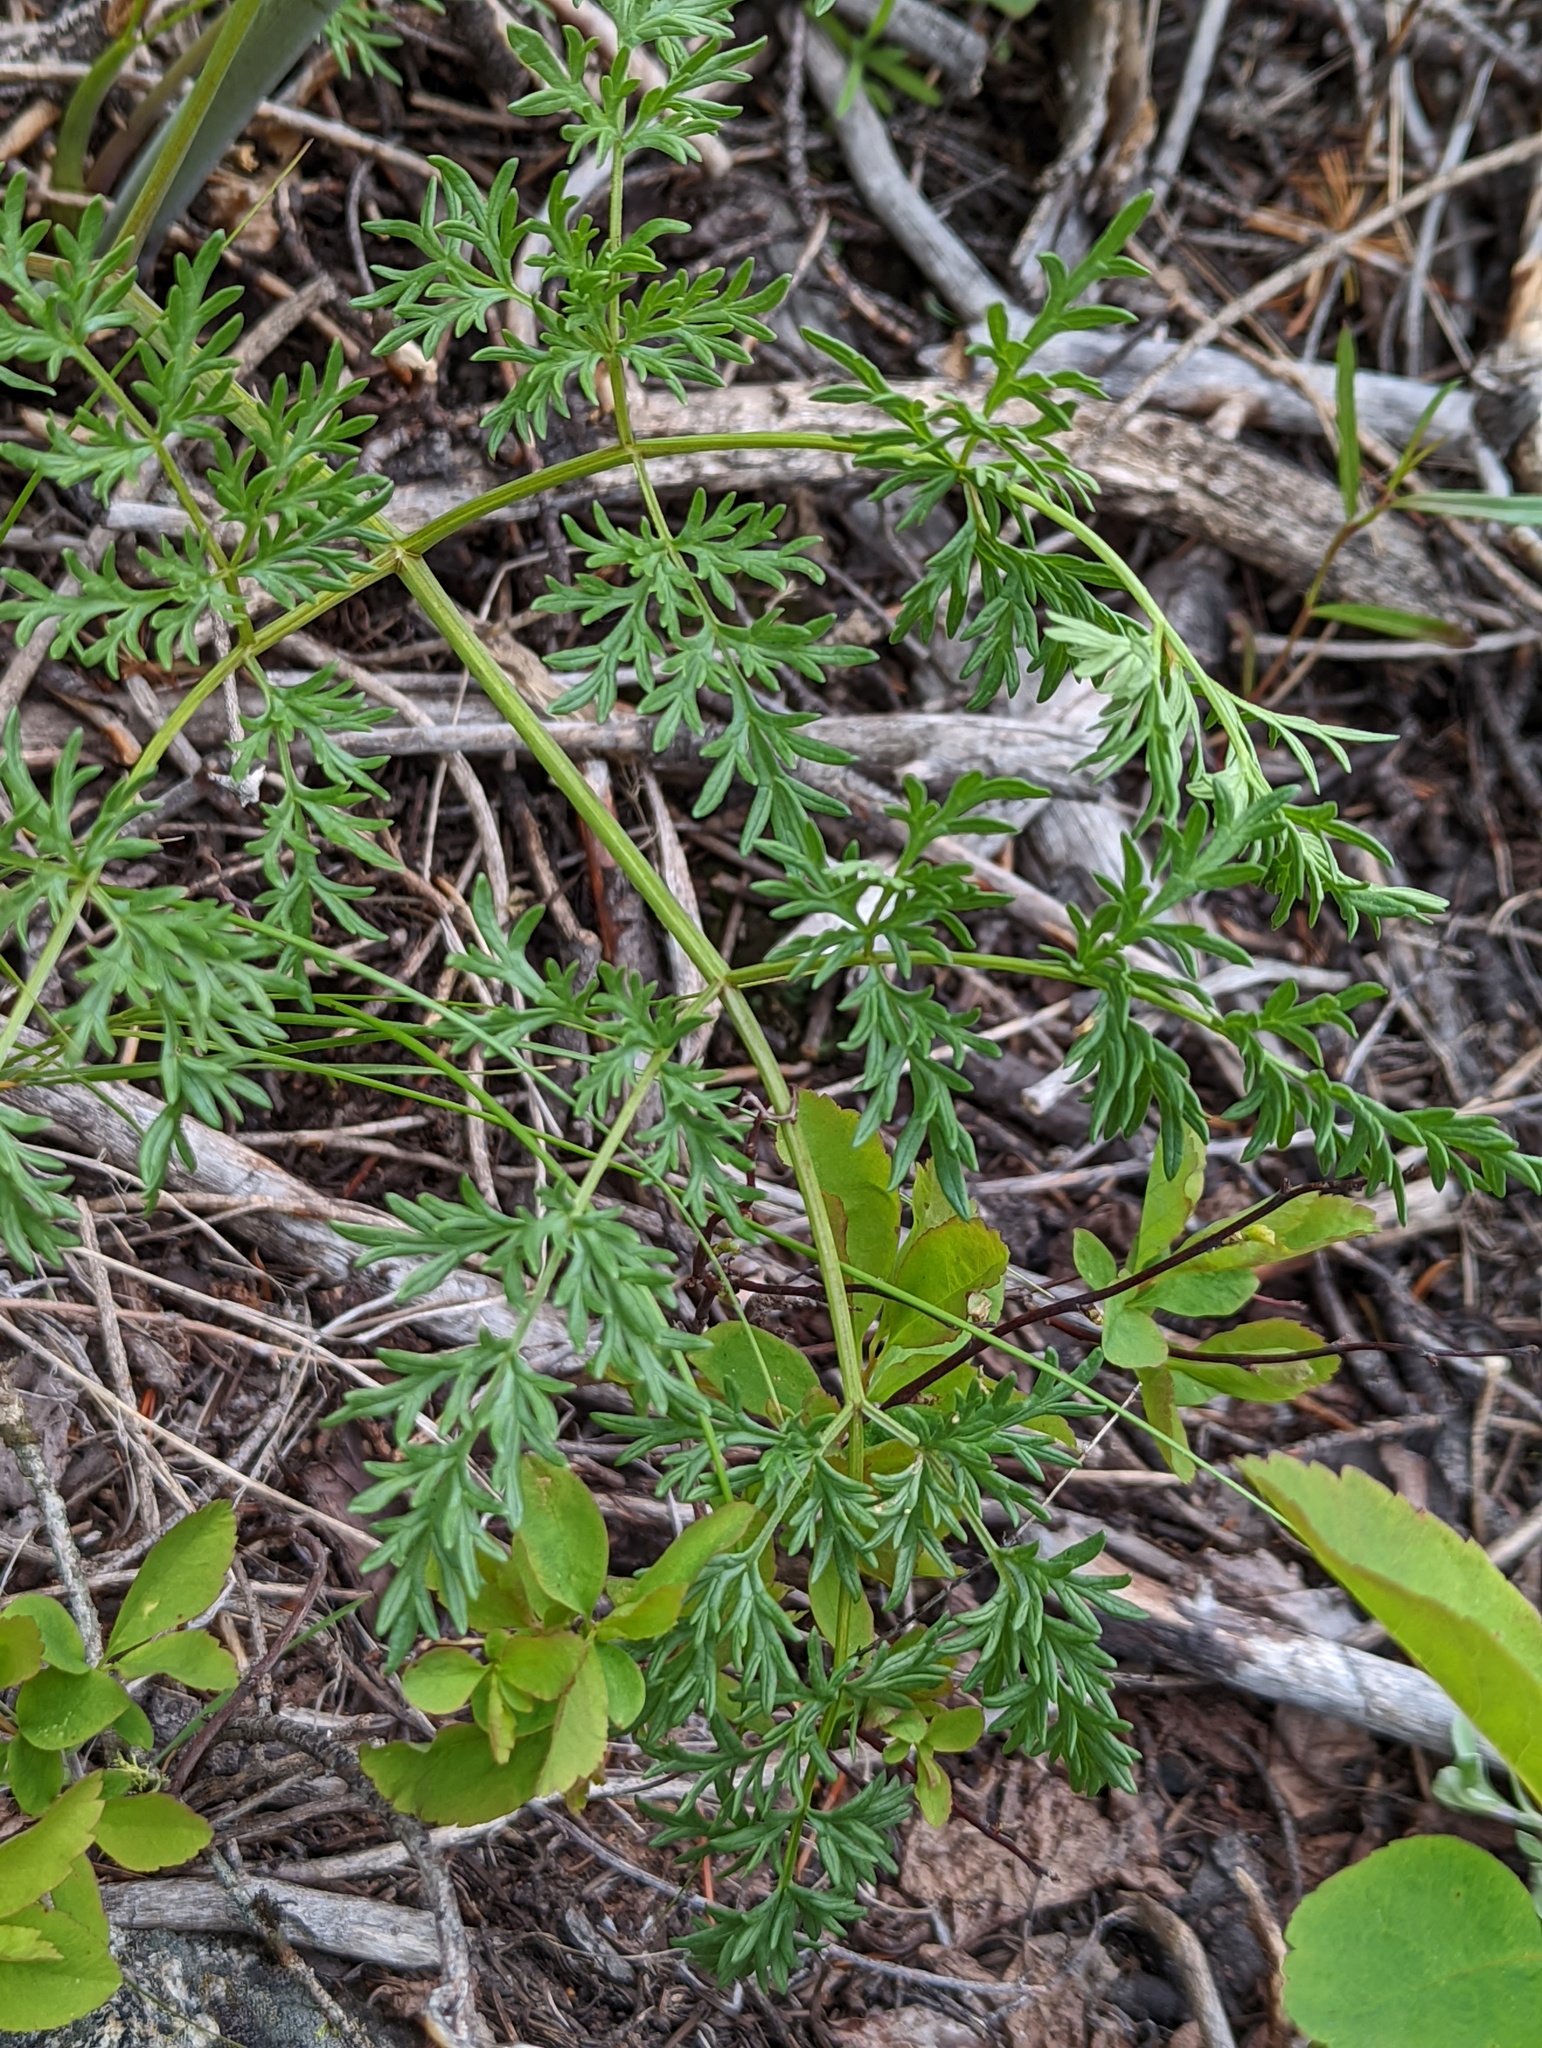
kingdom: Plantae
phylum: Tracheophyta
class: Magnoliopsida
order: Apiales
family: Apiaceae
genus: Lomatium
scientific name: Lomatium multifidum
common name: Carrot-leaved biscuitroot
